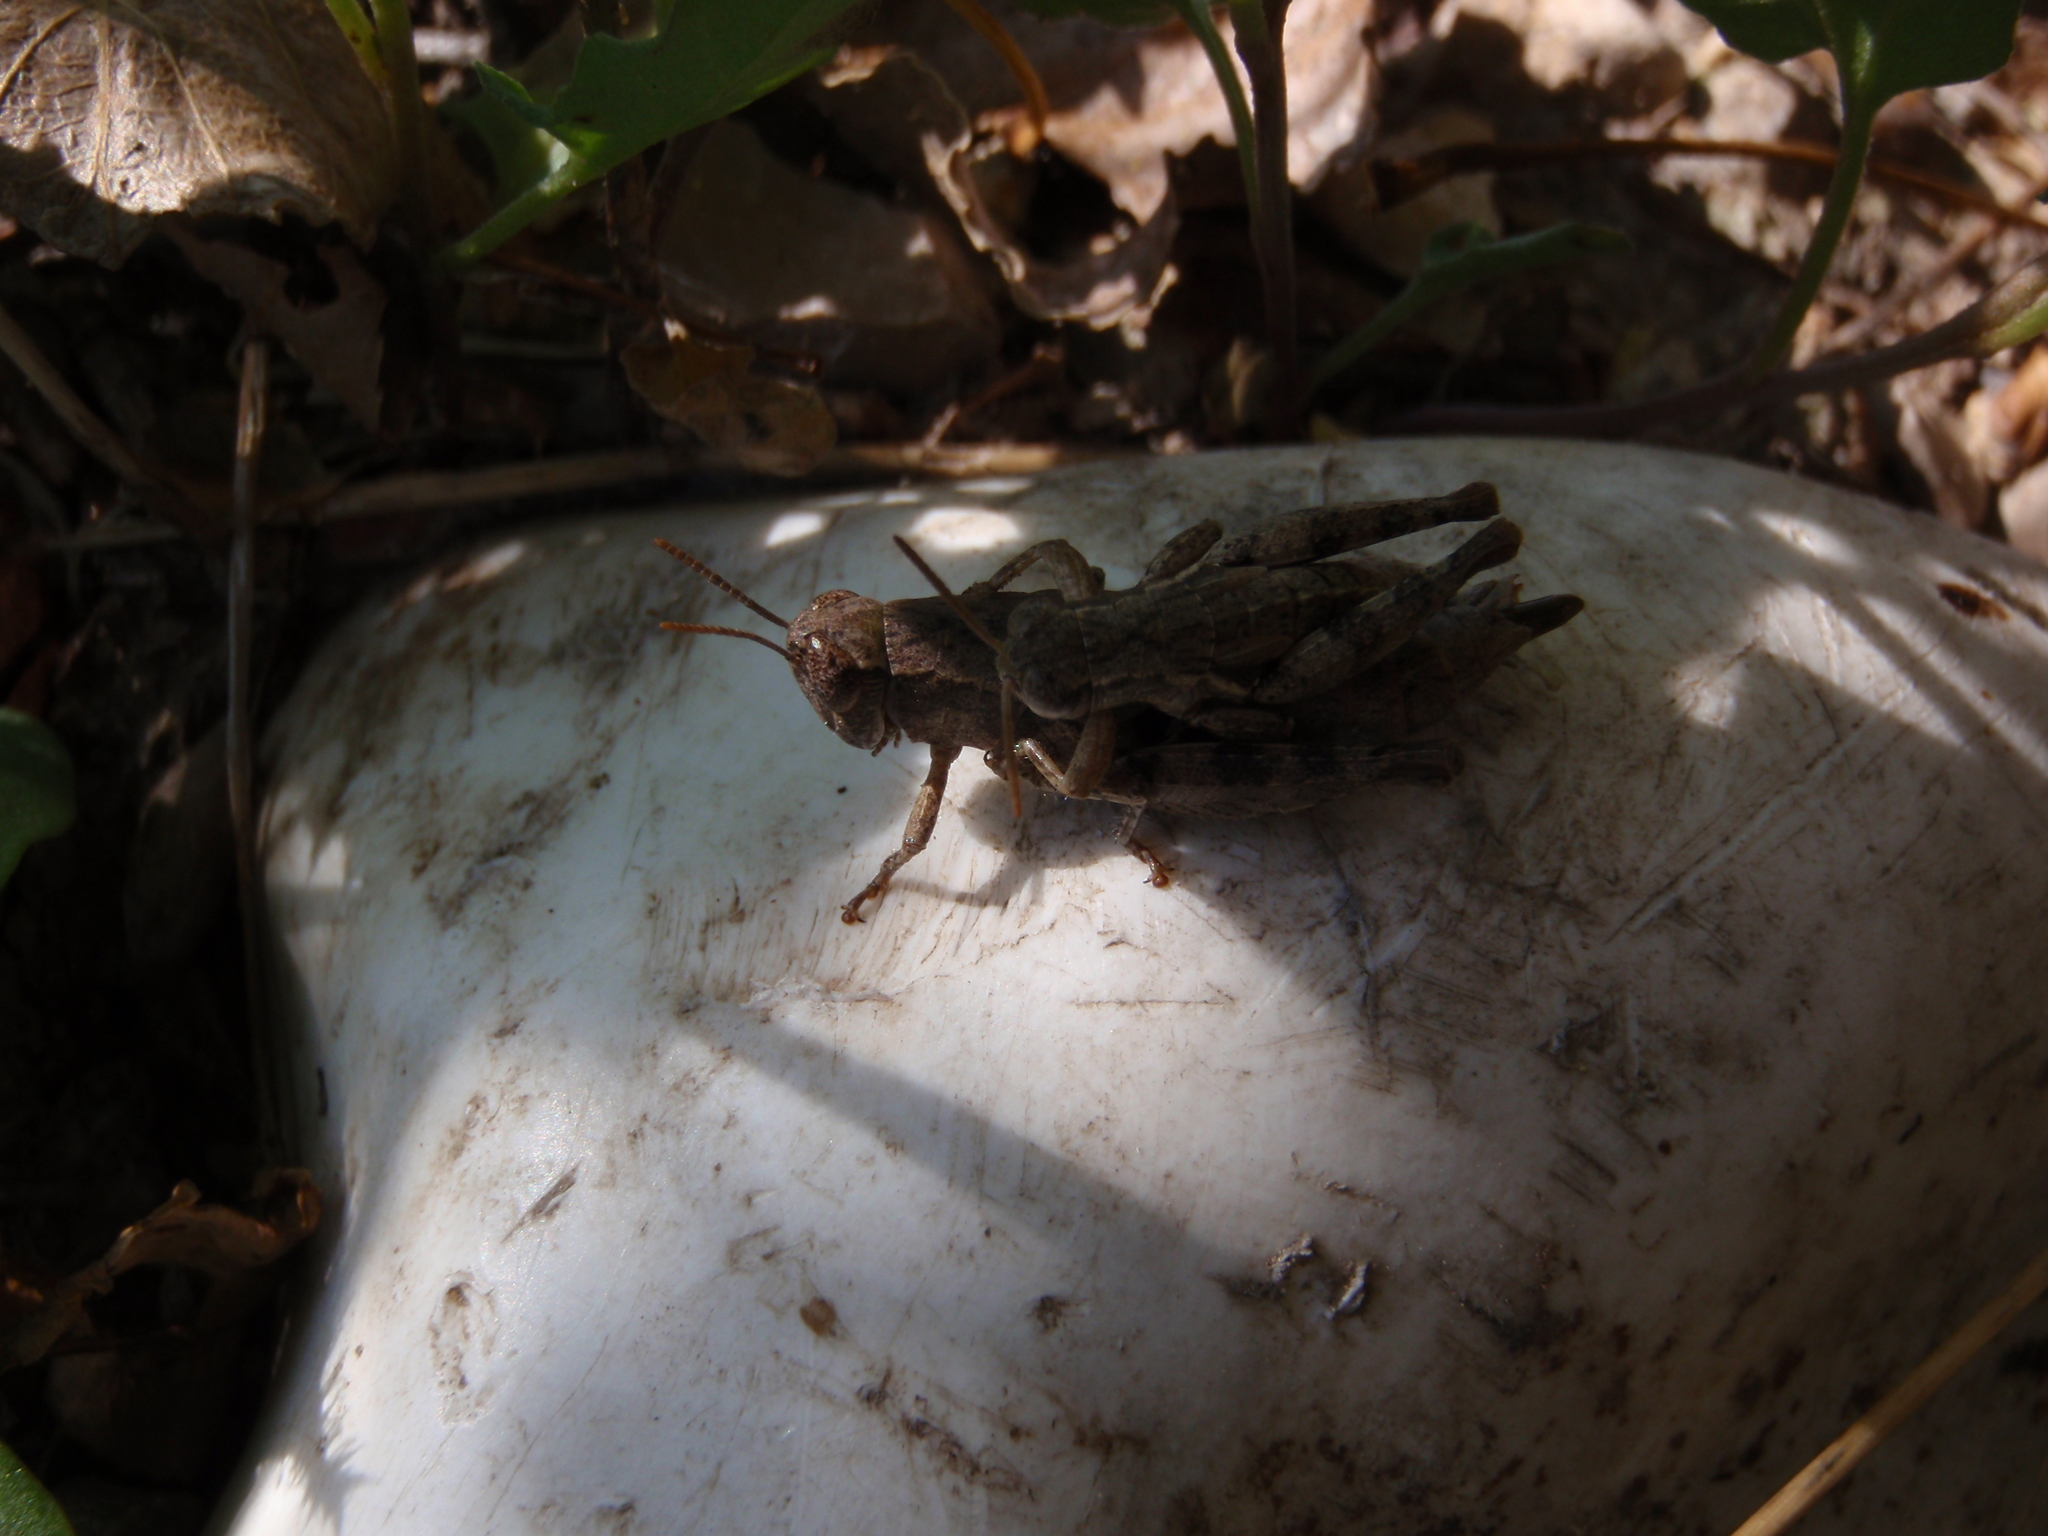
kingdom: Animalia
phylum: Arthropoda
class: Insecta
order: Orthoptera
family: Acrididae
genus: Pezotettix
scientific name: Pezotettix giornae
